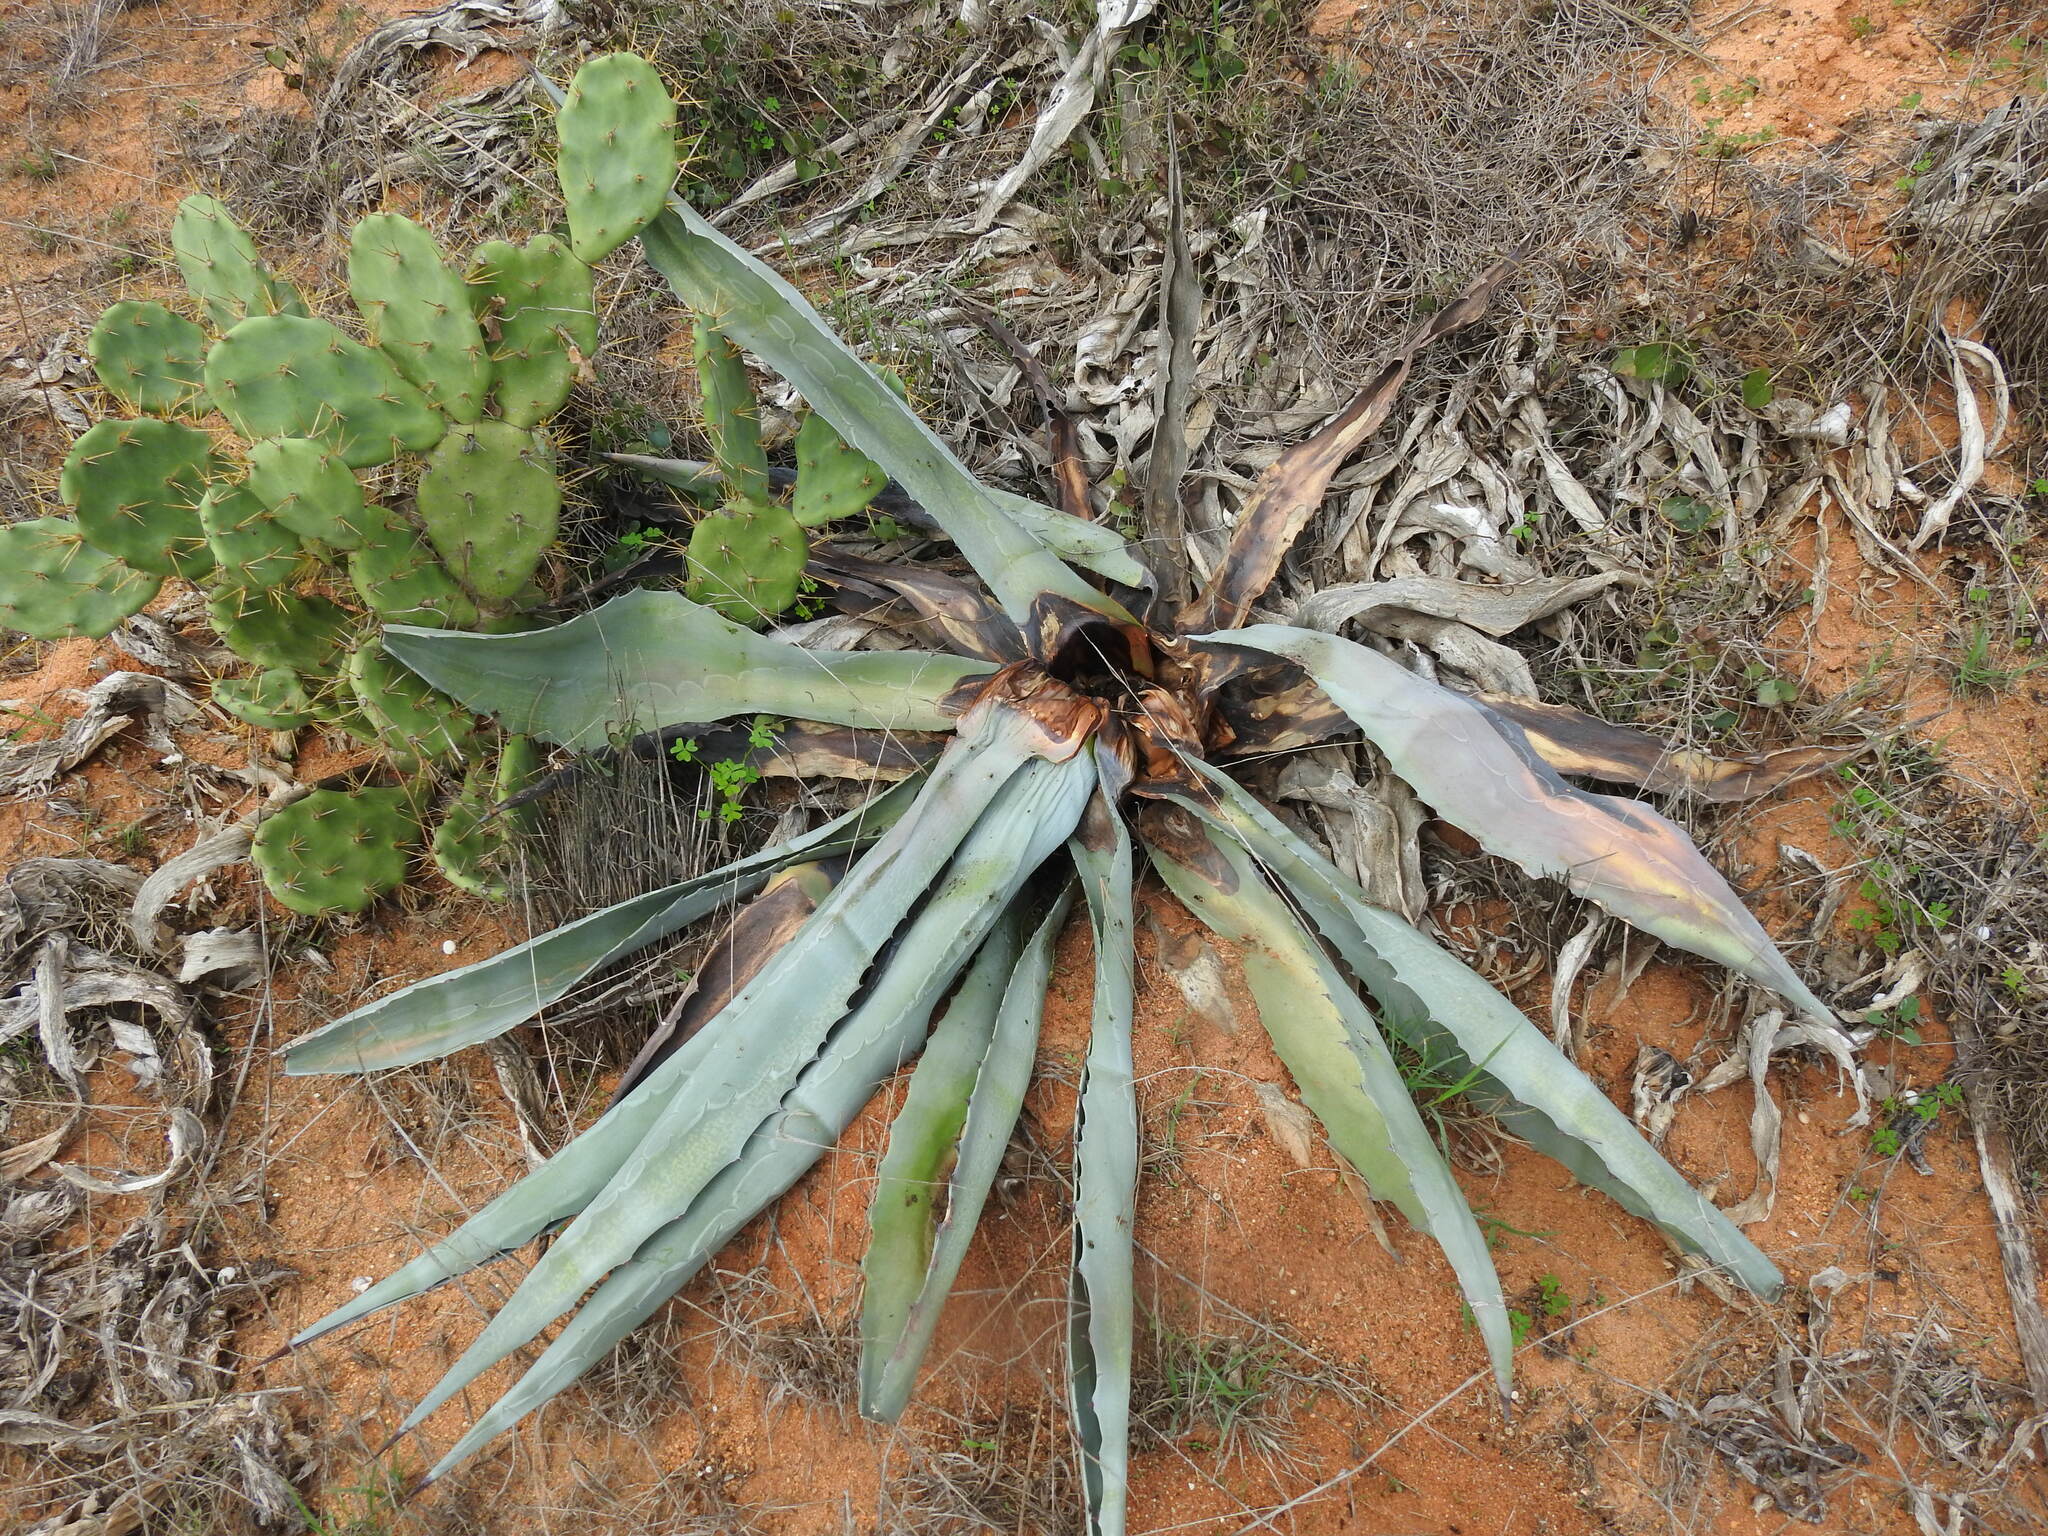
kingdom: Plantae
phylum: Tracheophyta
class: Liliopsida
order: Asparagales
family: Asparagaceae
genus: Agave
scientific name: Agave americana
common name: Centuryplant
